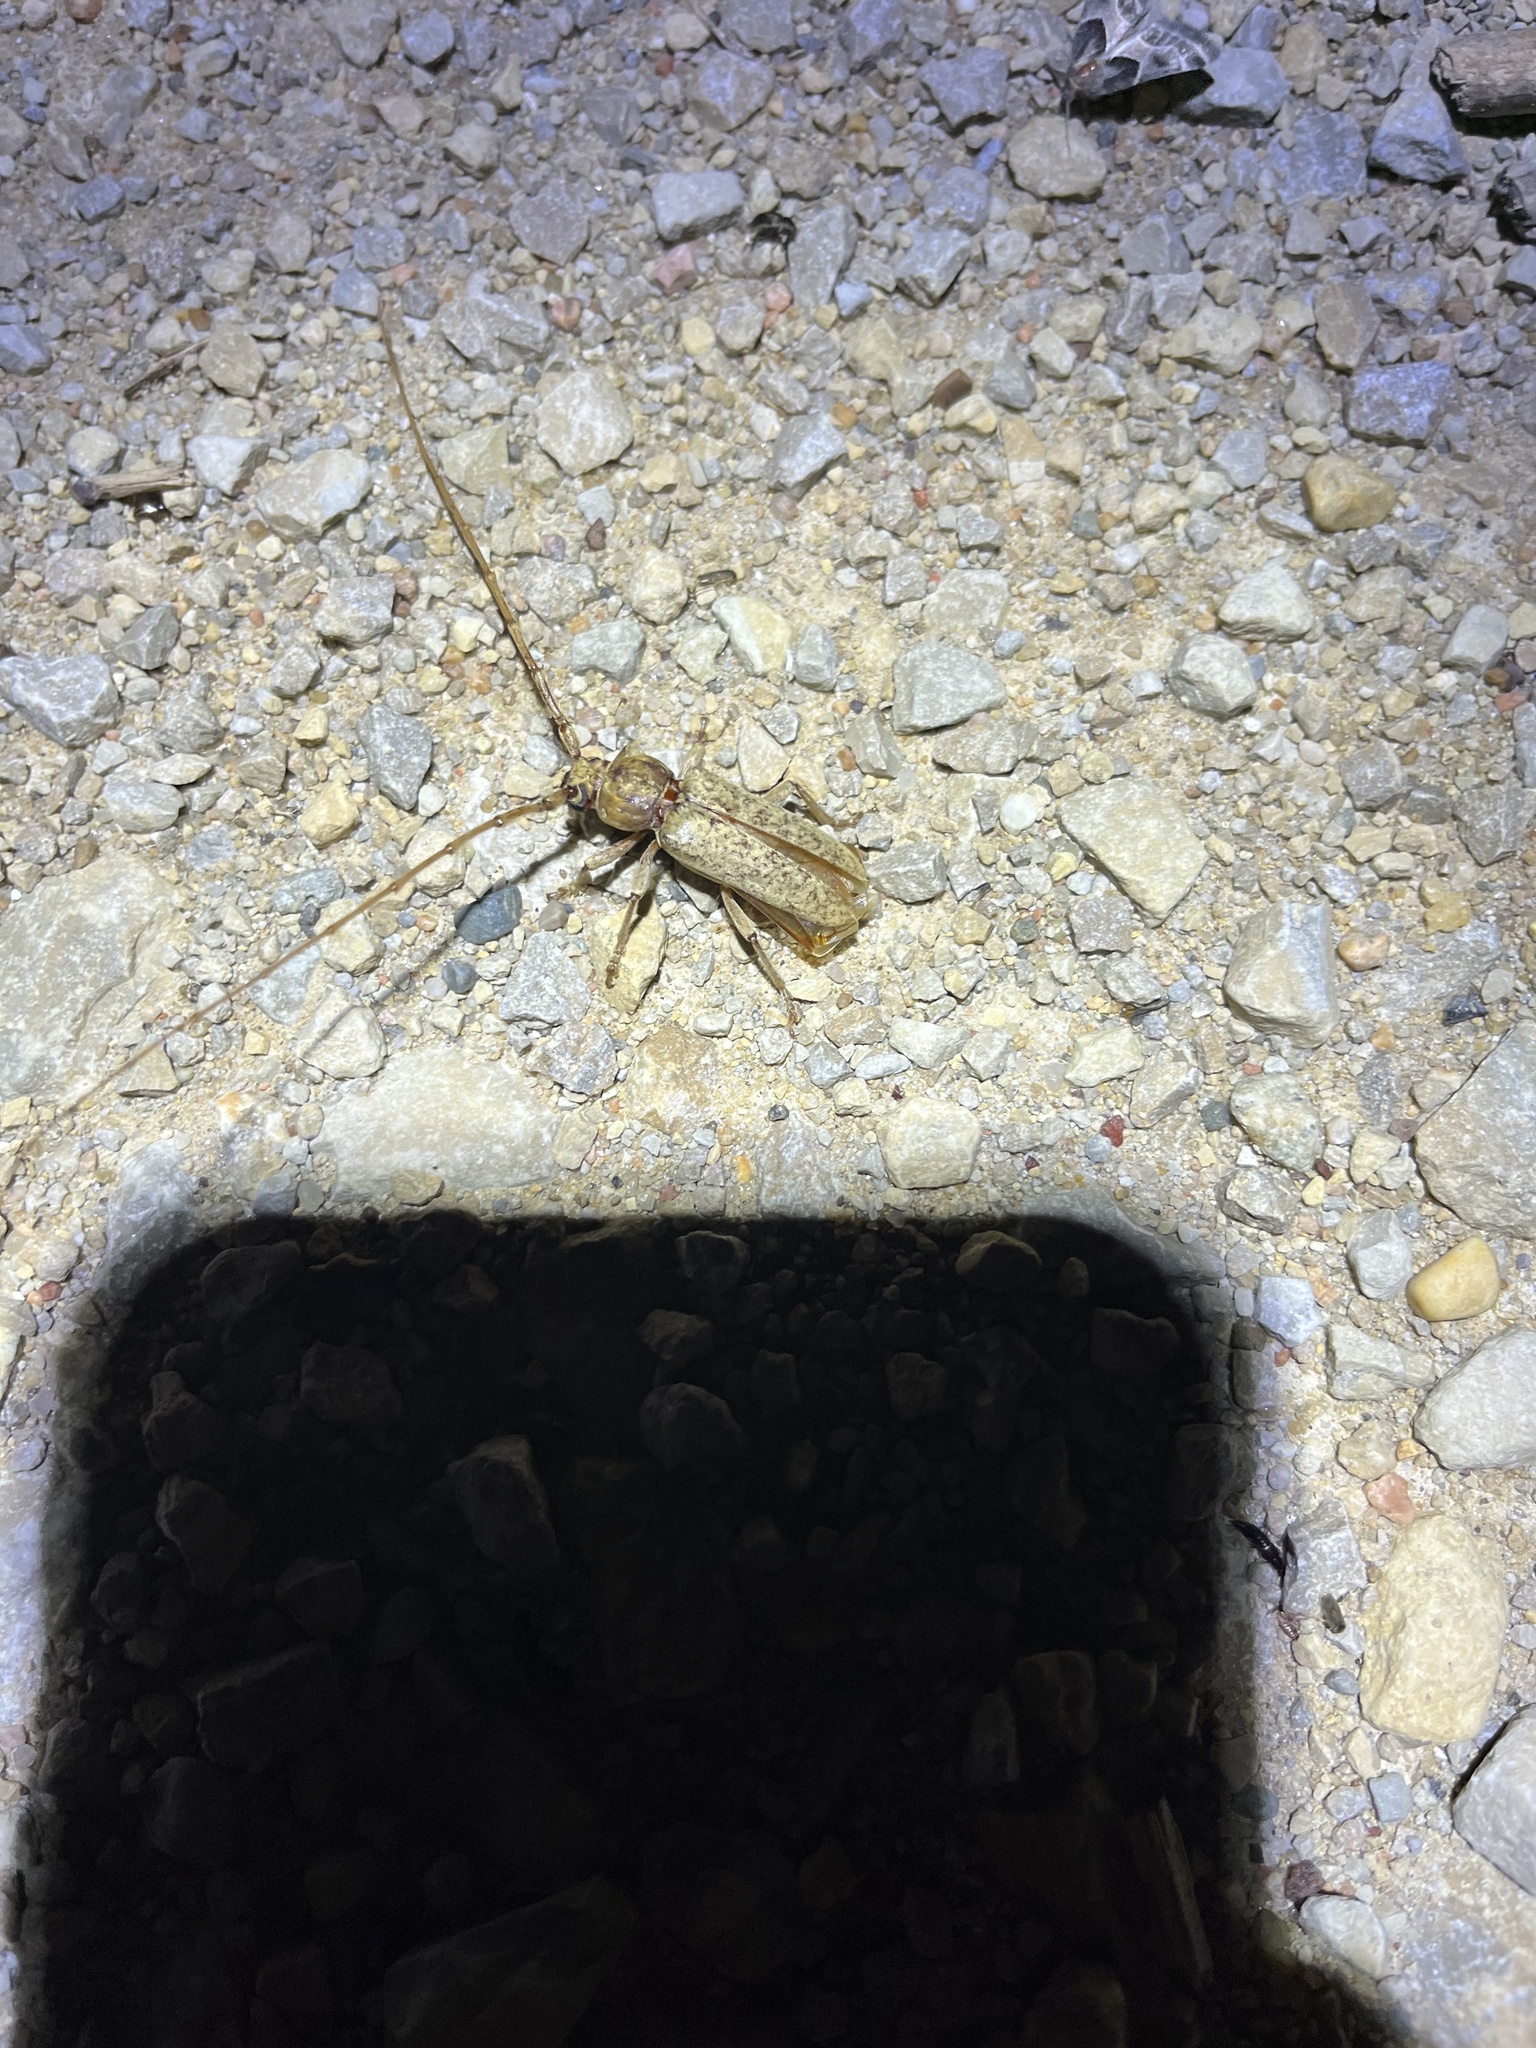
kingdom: Animalia
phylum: Arthropoda
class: Insecta
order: Coleoptera
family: Cerambycidae
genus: Enaphalodes
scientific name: Enaphalodes rufulus
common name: Red oak borer
